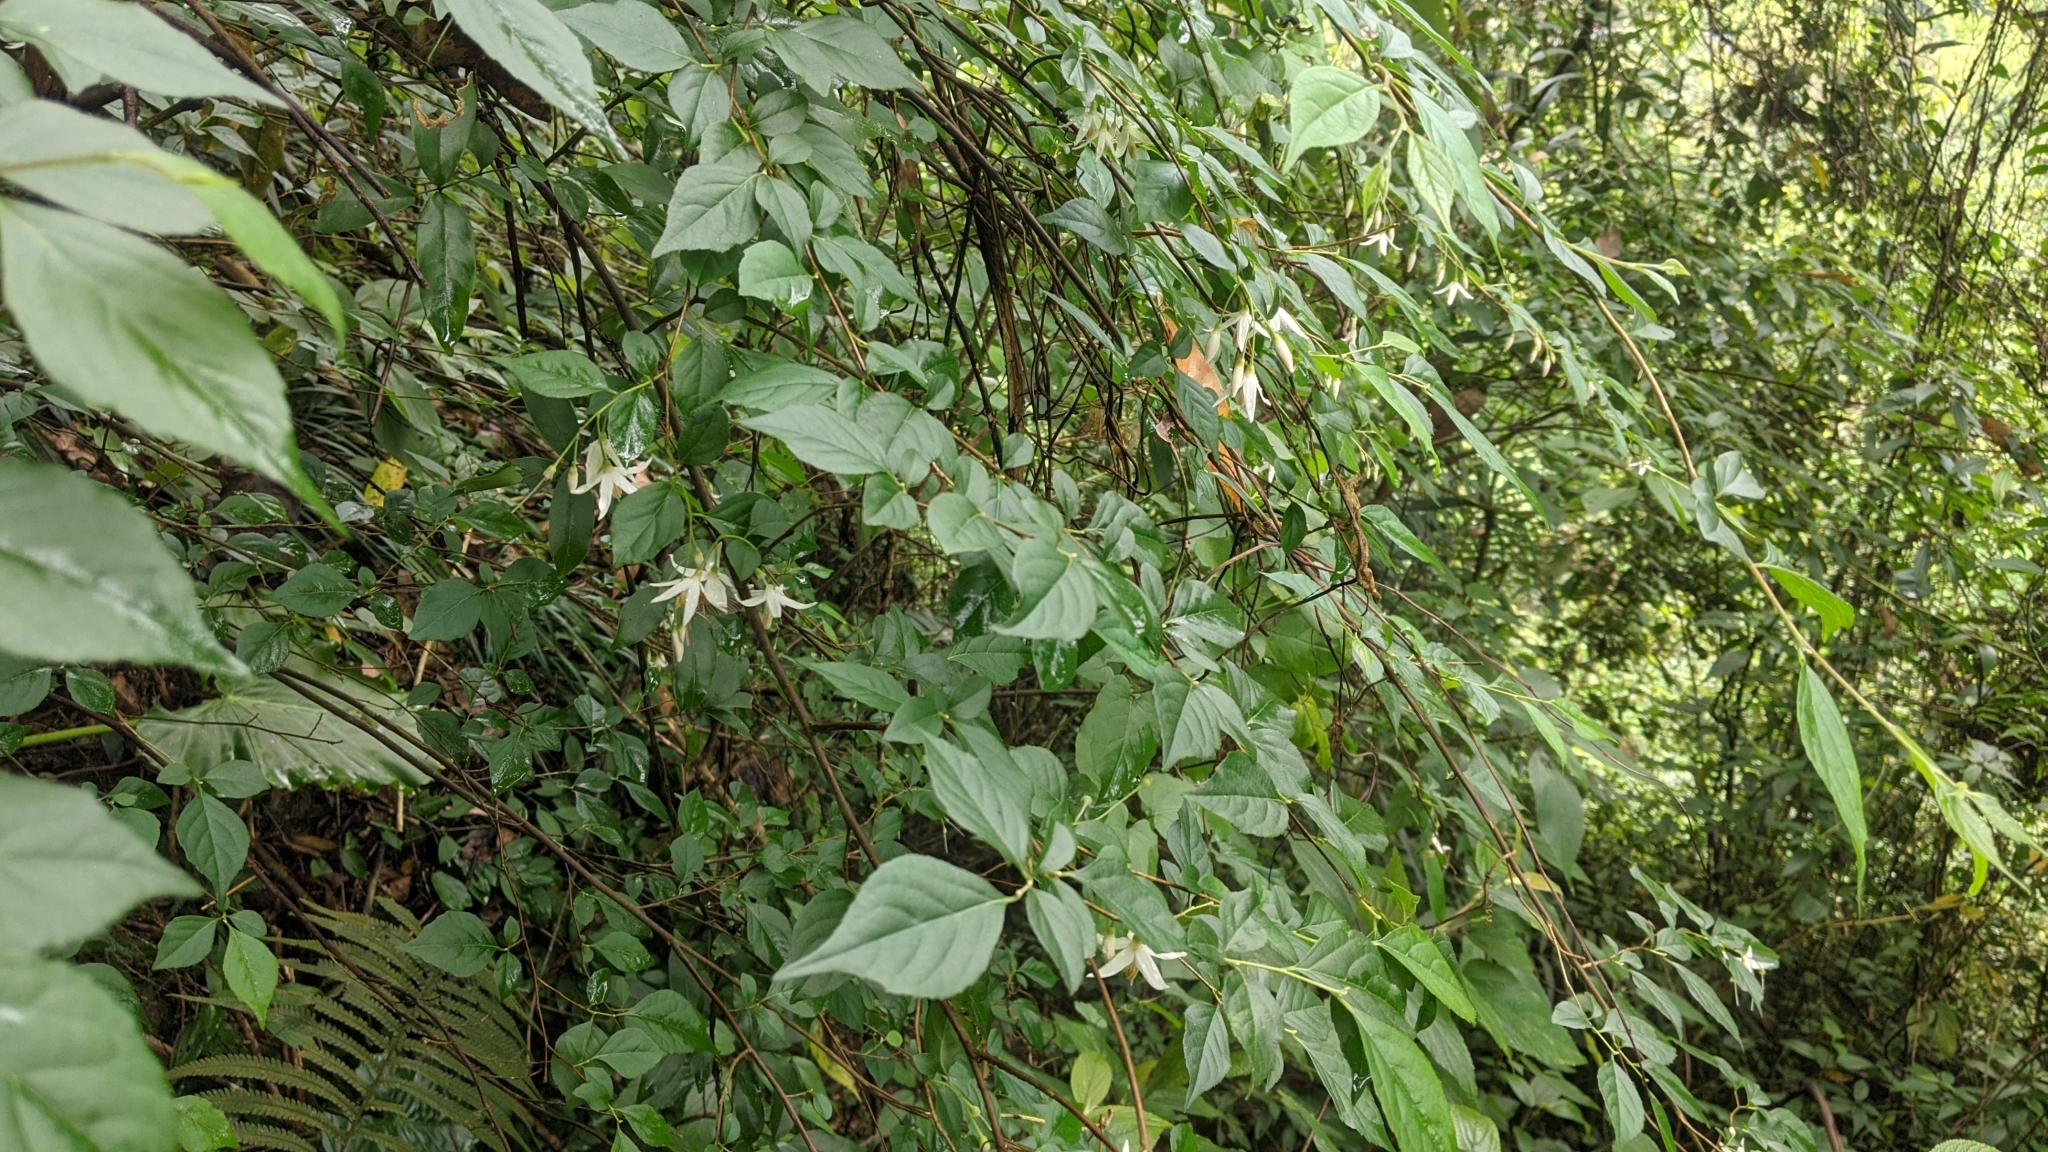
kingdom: Plantae
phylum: Tracheophyta
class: Magnoliopsida
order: Ericales
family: Styracaceae
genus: Styrax
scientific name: Styrax formosanus
